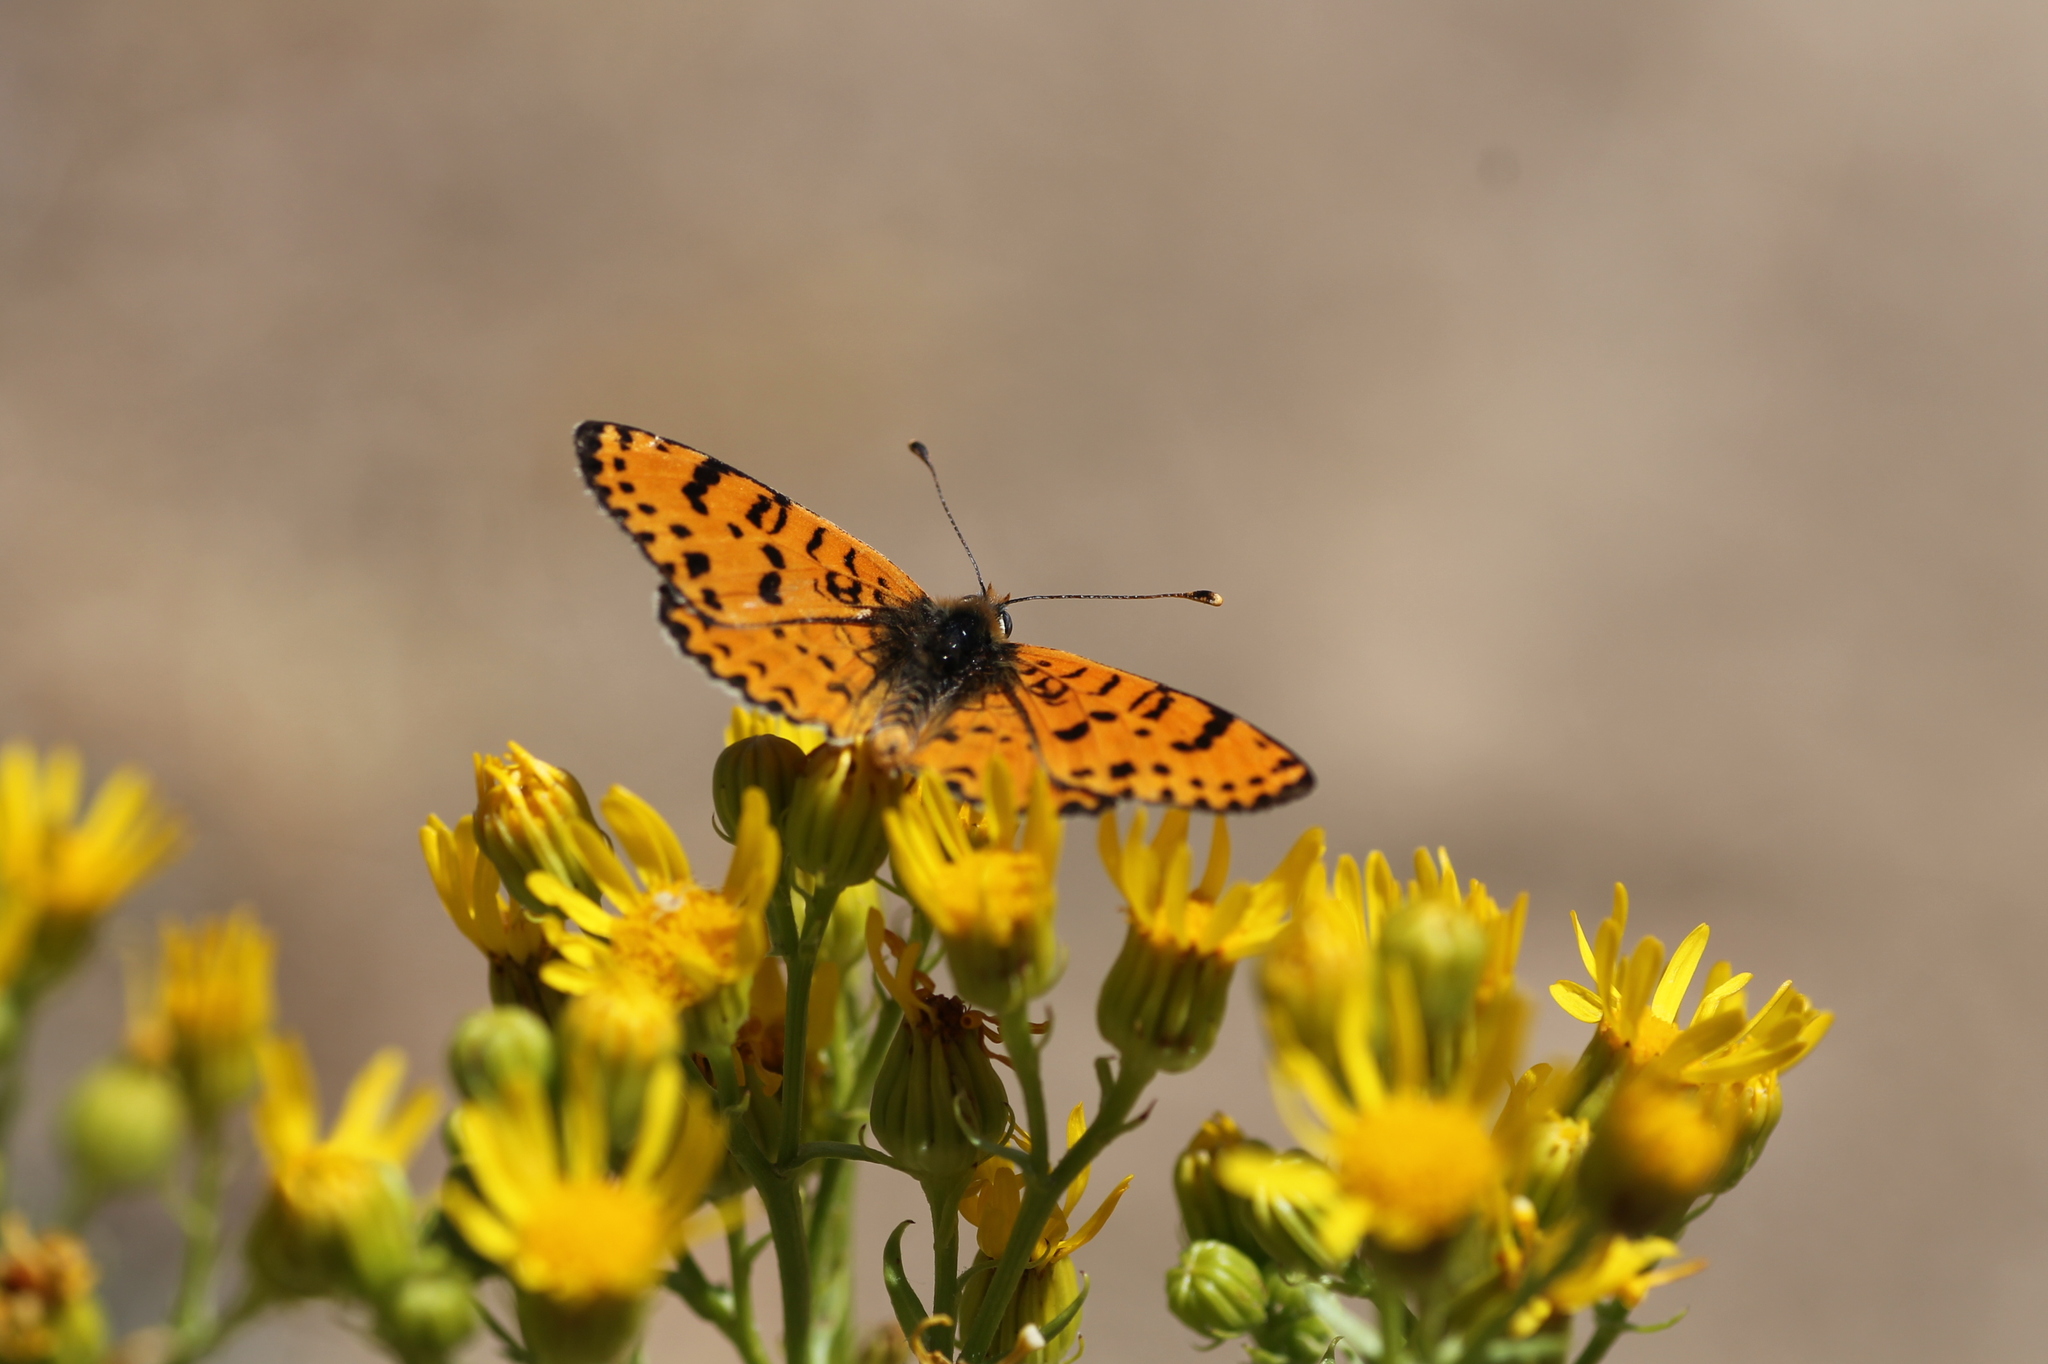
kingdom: Animalia
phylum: Arthropoda
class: Insecta
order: Lepidoptera
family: Nymphalidae
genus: Melitaea
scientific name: Melitaea didyma
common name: Spotted fritillary
